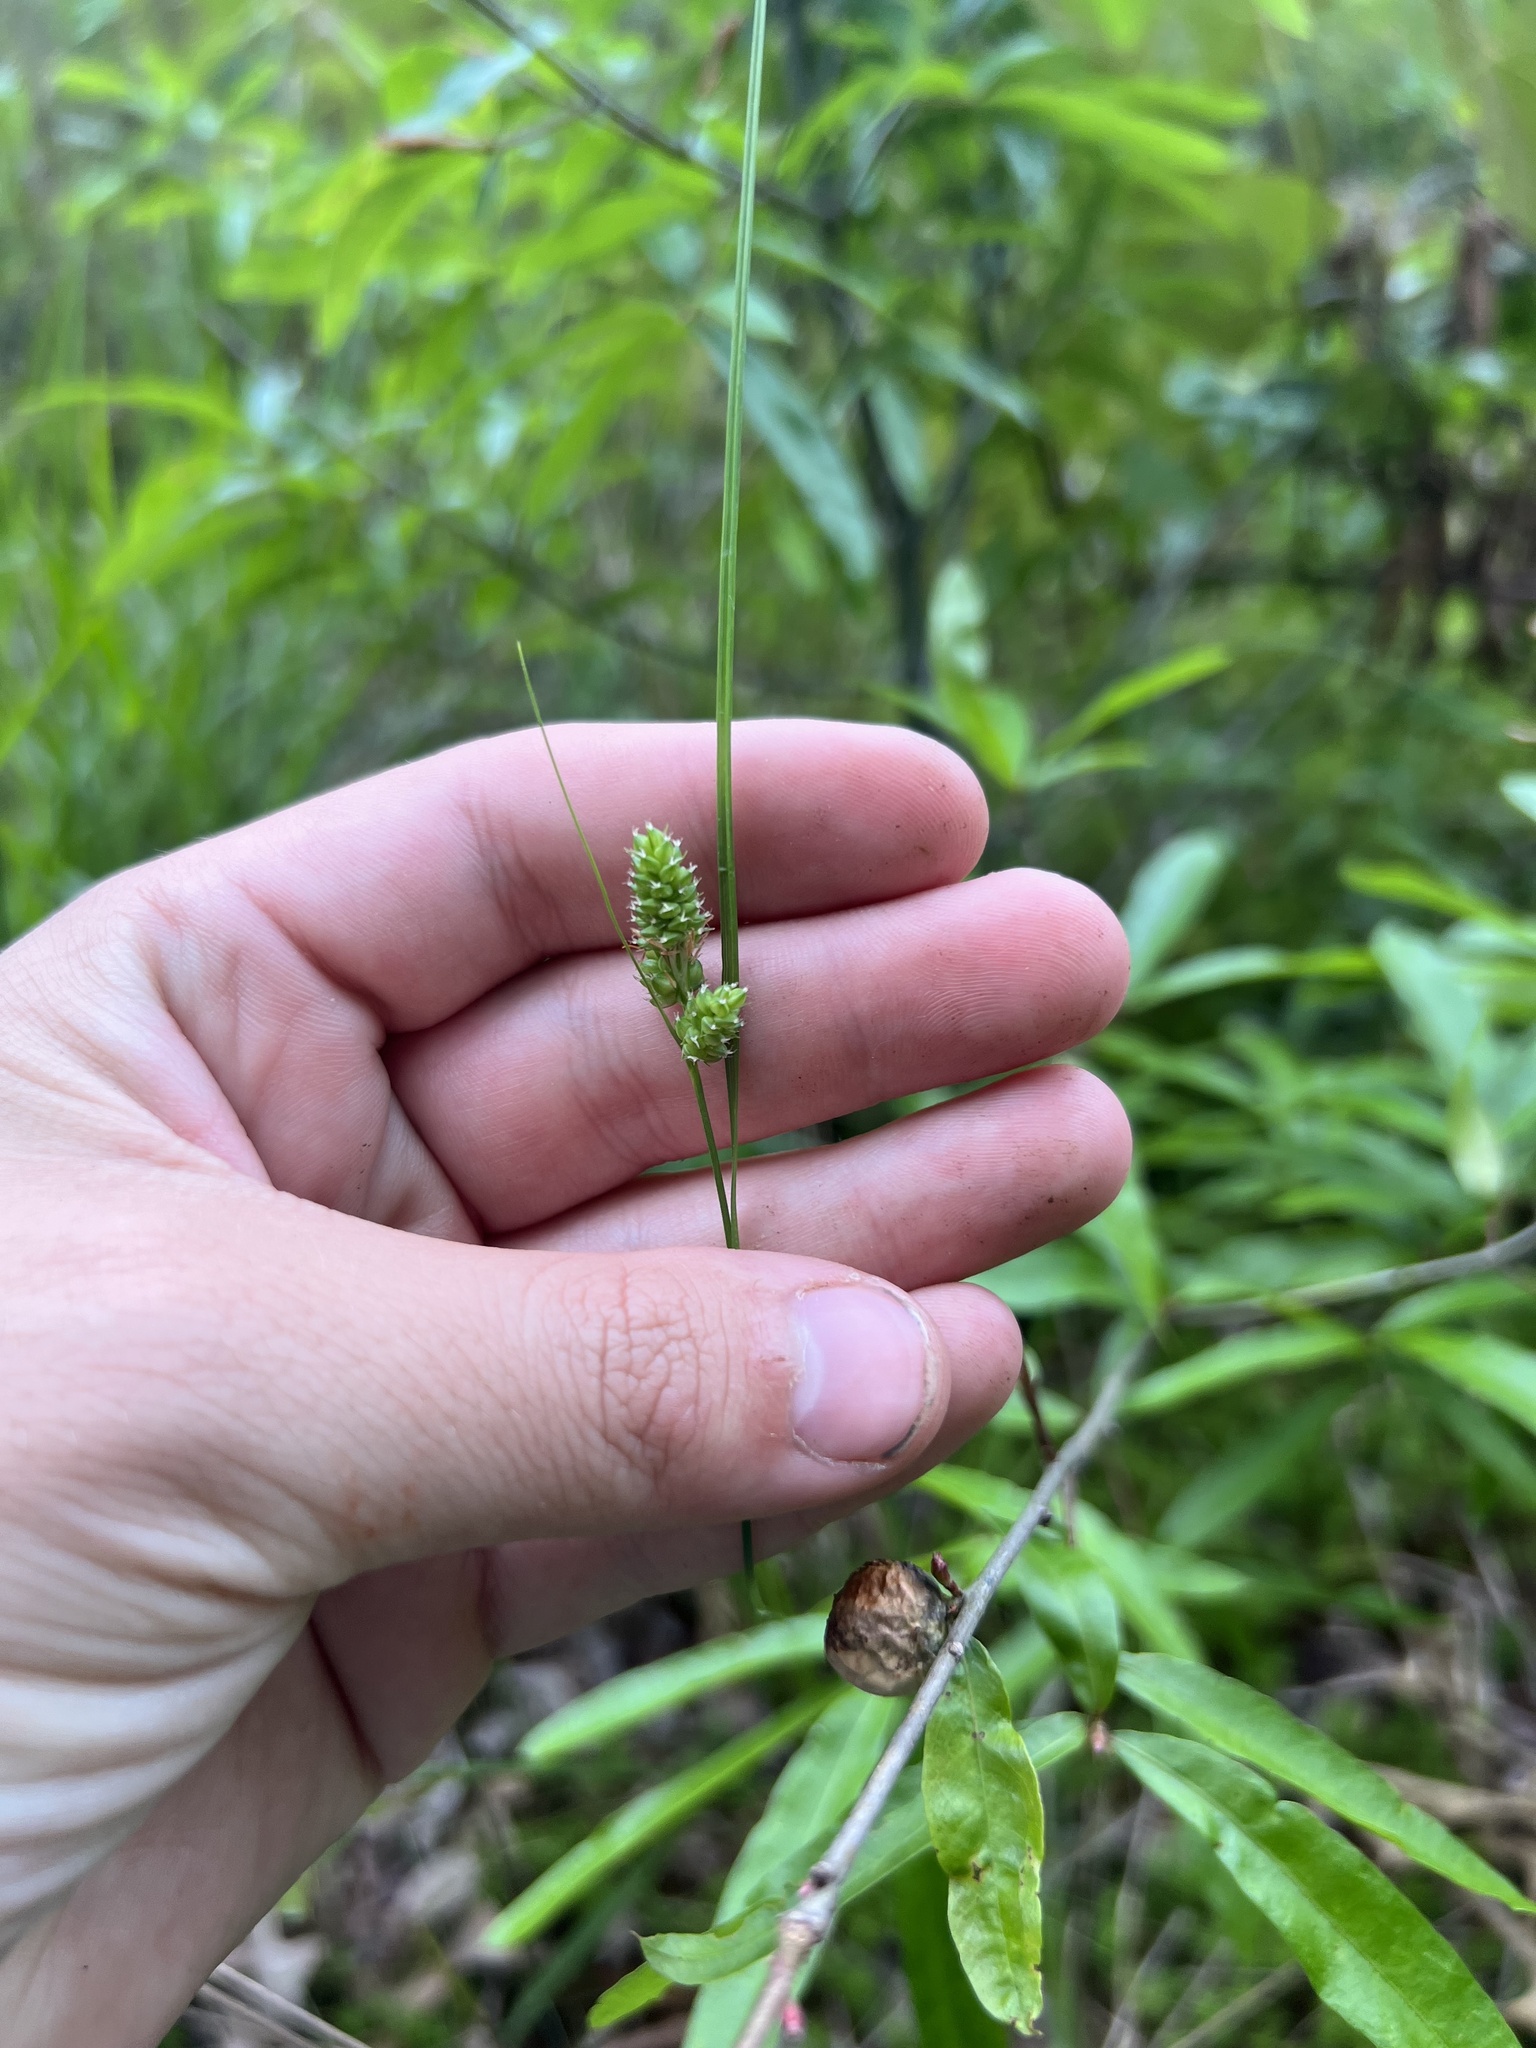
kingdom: Plantae
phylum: Tracheophyta
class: Liliopsida
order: Poales
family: Cyperaceae
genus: Carex
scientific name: Carex complanata
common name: Hirsute sedge
